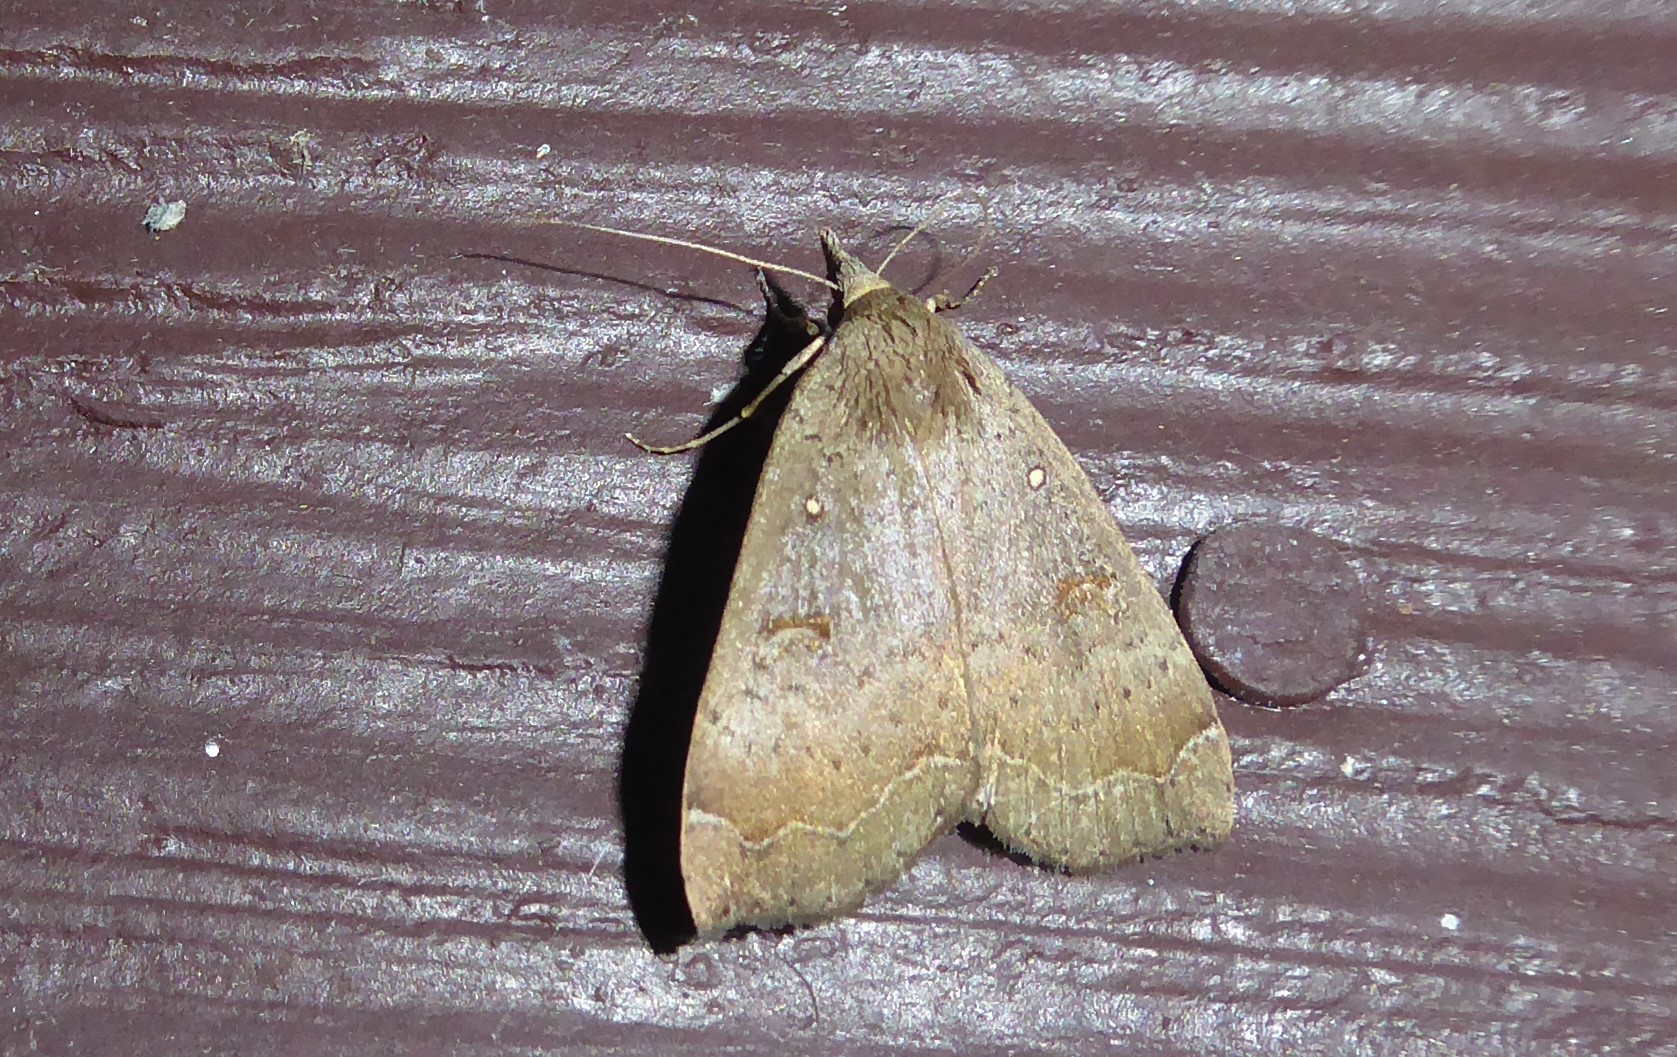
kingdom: Animalia
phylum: Arthropoda
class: Insecta
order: Lepidoptera
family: Erebidae
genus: Rhapsa
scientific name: Rhapsa scotosialis
